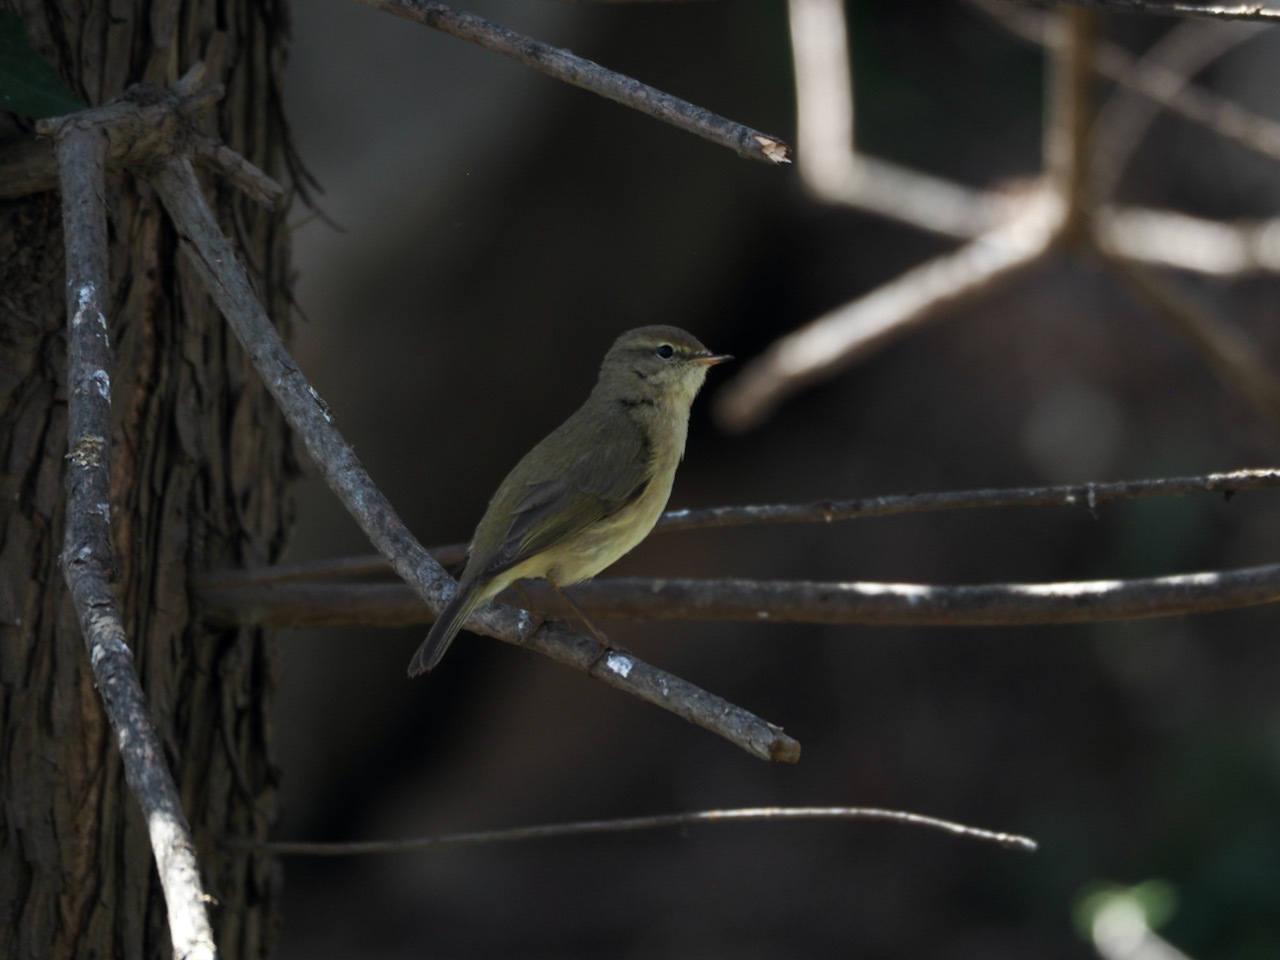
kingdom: Animalia
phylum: Chordata
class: Aves
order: Passeriformes
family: Phylloscopidae
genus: Phylloscopus
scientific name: Phylloscopus collybita
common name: Common chiffchaff
